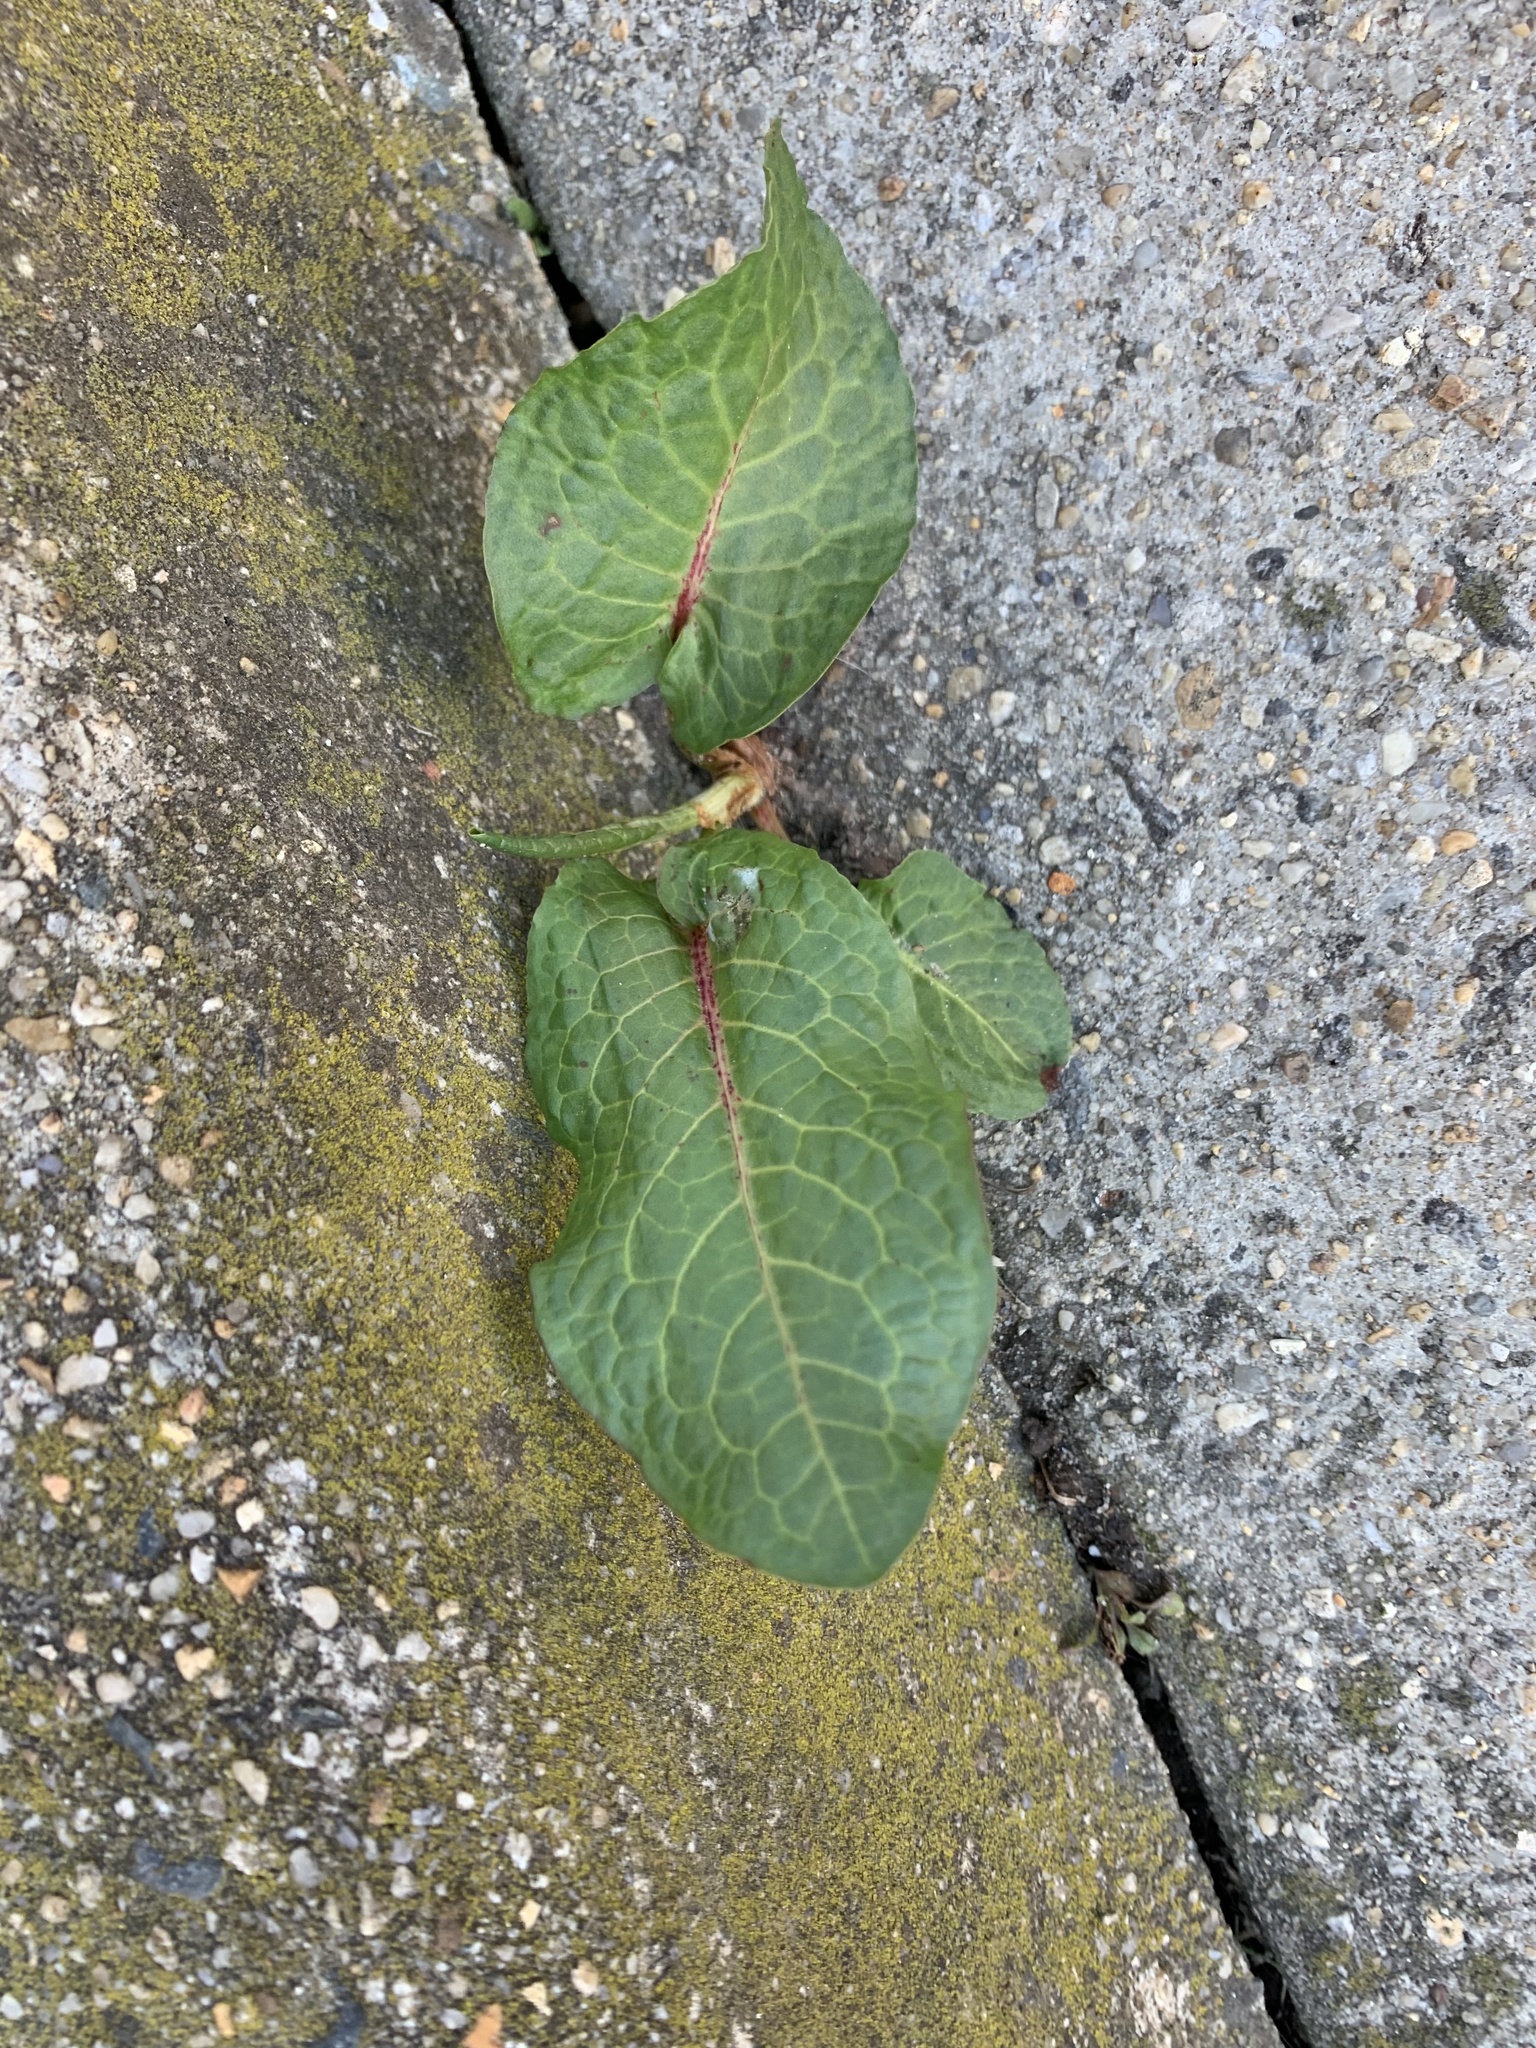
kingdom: Plantae
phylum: Tracheophyta
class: Magnoliopsida
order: Caryophyllales
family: Polygonaceae
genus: Rumex
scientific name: Rumex obtusifolius
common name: Bitter dock
